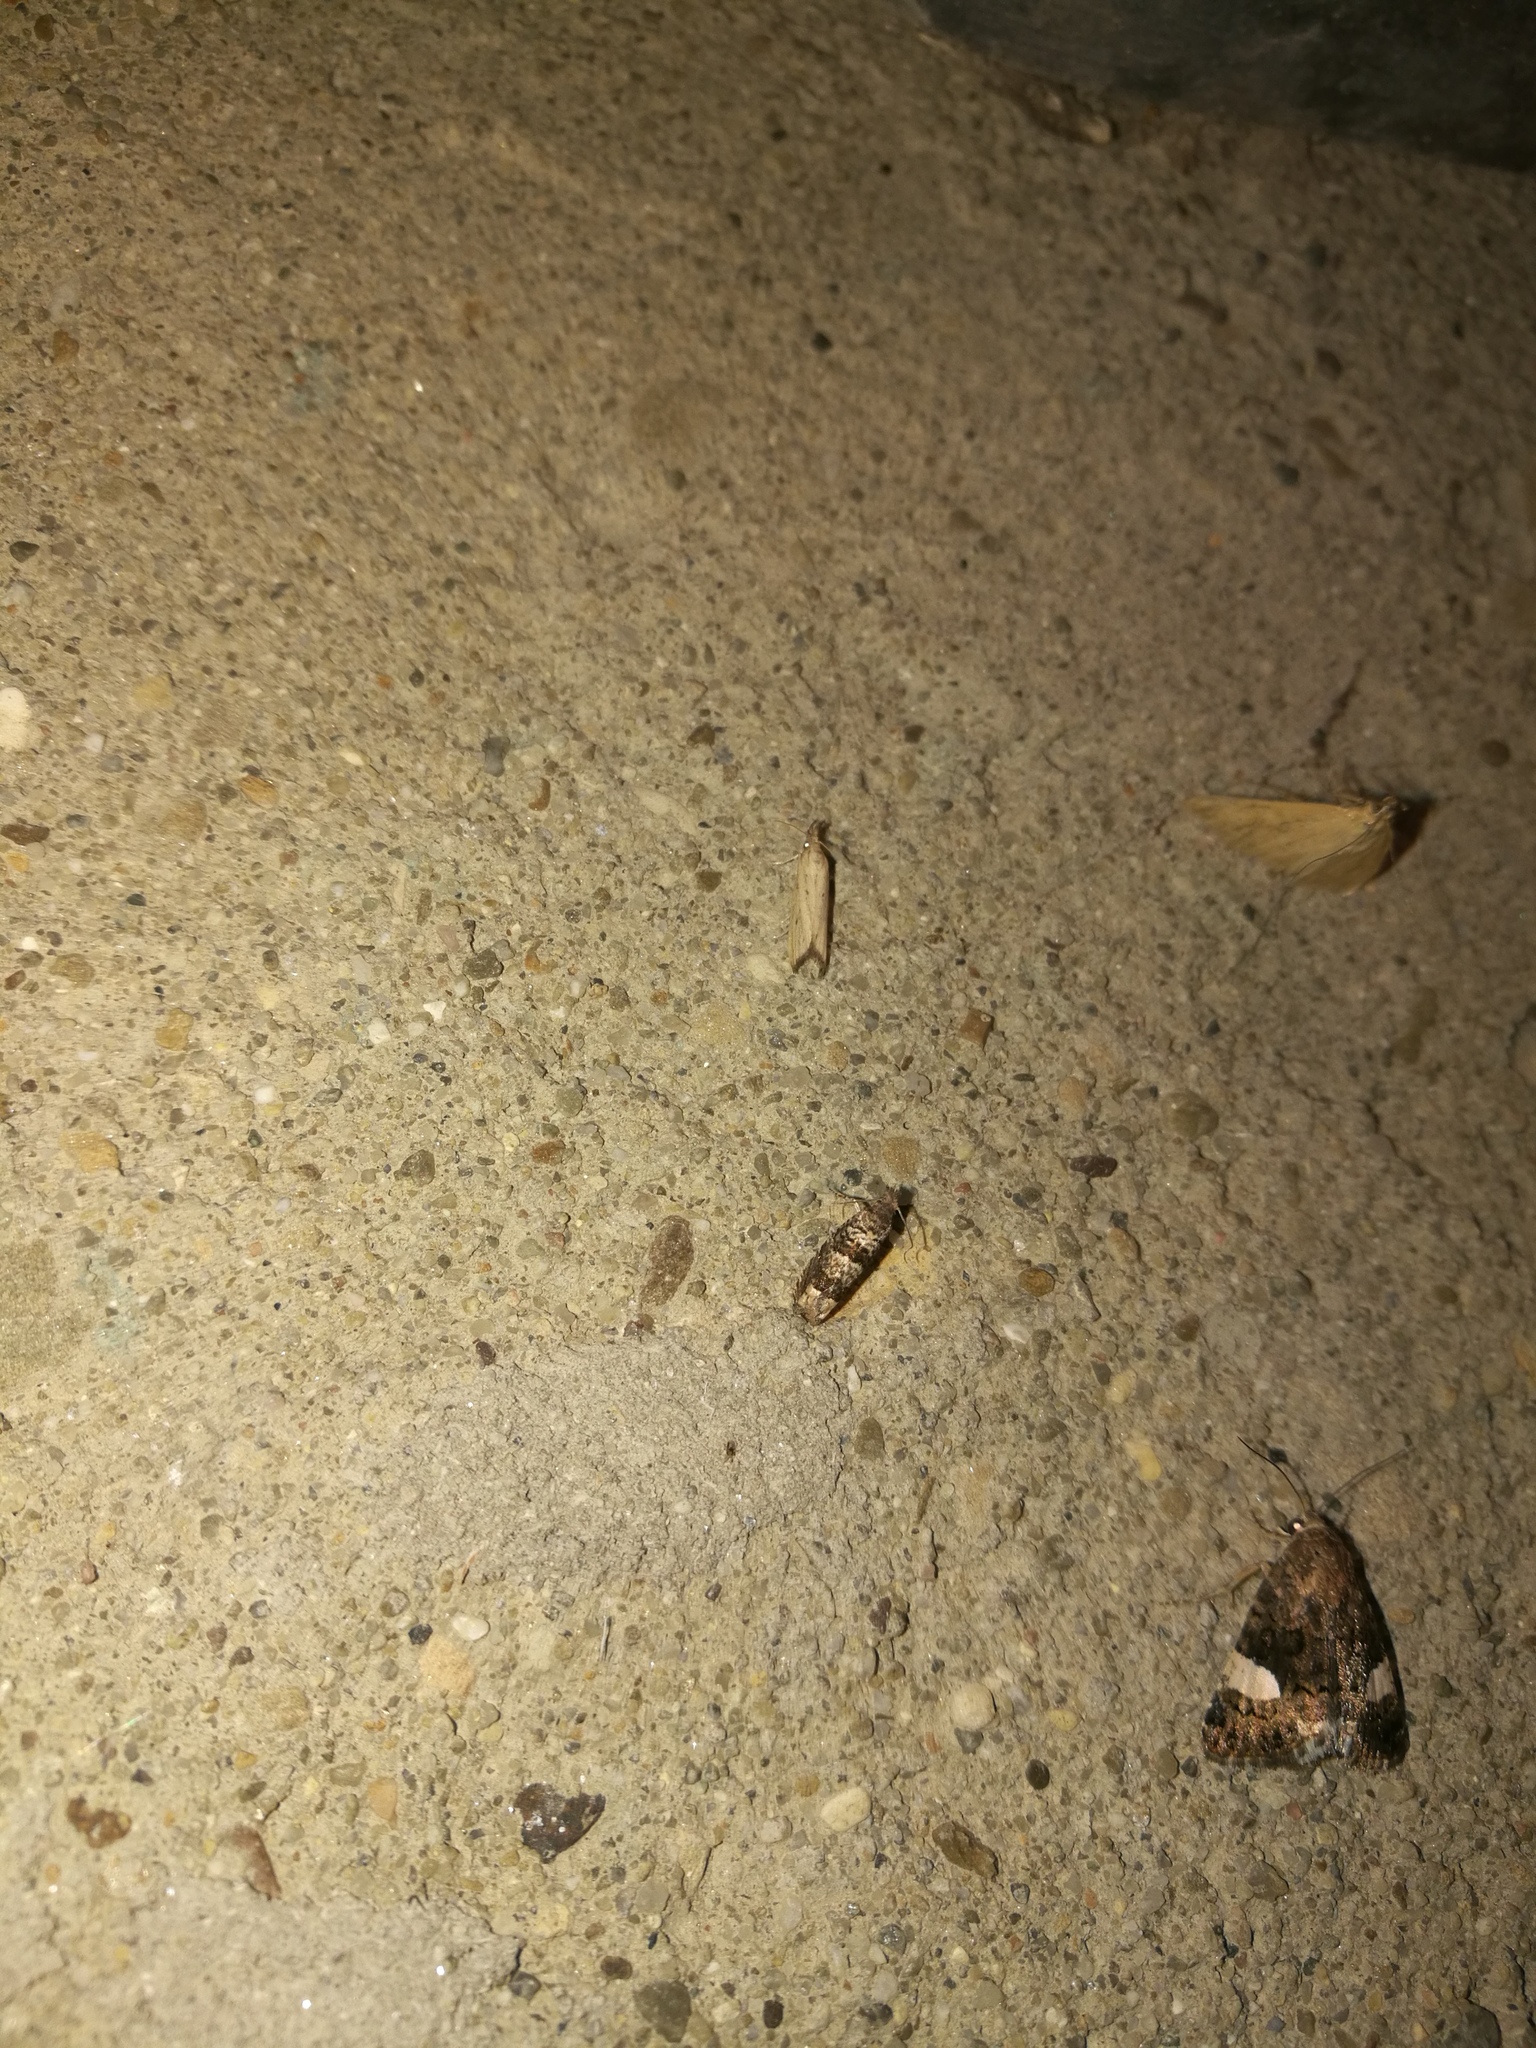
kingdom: Animalia
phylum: Arthropoda
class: Insecta
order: Lepidoptera
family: Erebidae
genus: Tyta
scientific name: Tyta luctuosa
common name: Four-spotted
